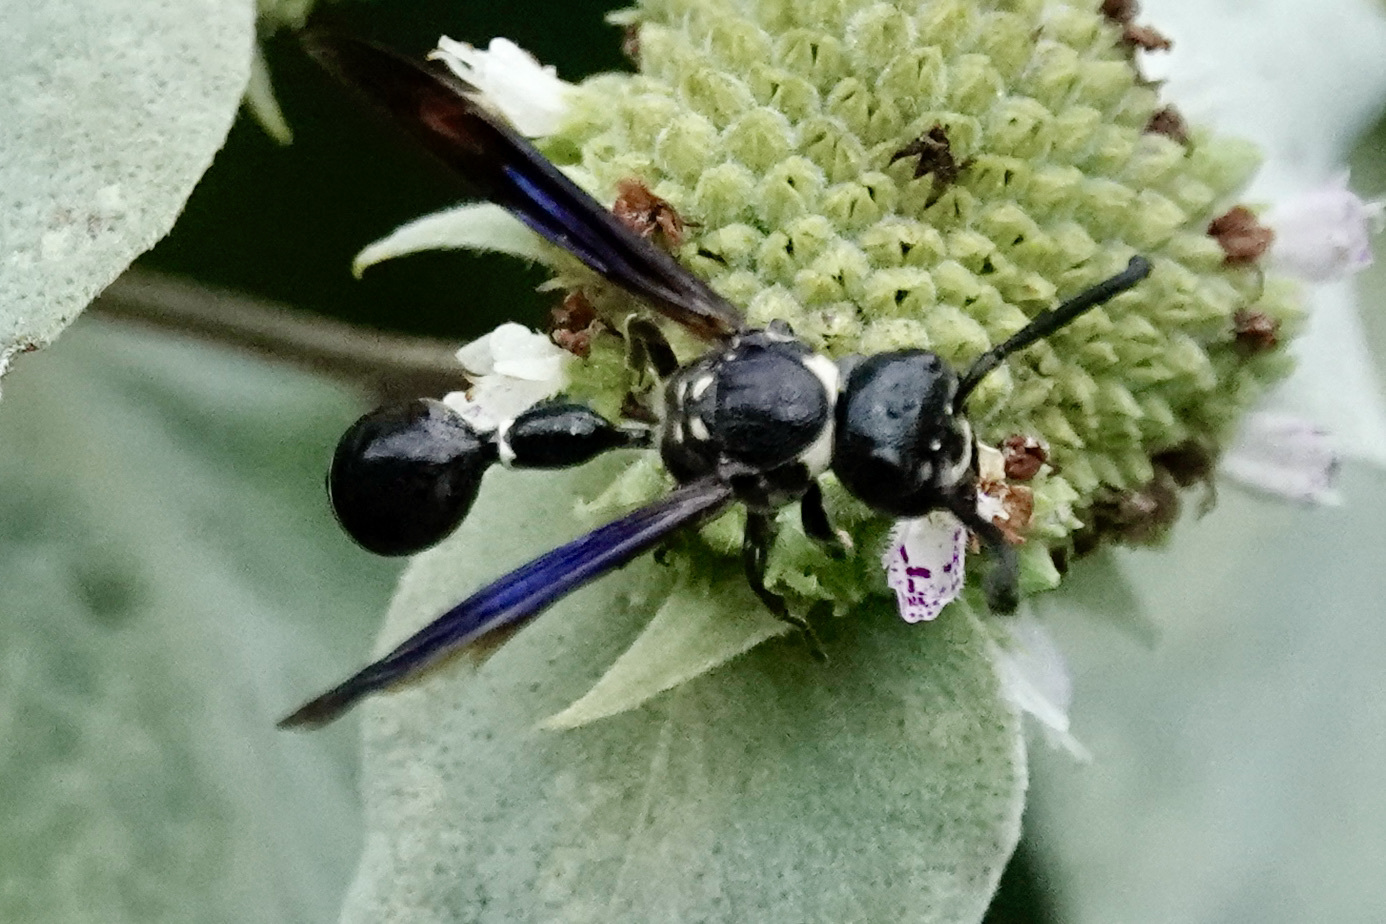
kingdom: Animalia
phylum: Arthropoda
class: Insecta
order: Hymenoptera
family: Eumenidae
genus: Zethus
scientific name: Zethus spinipes
